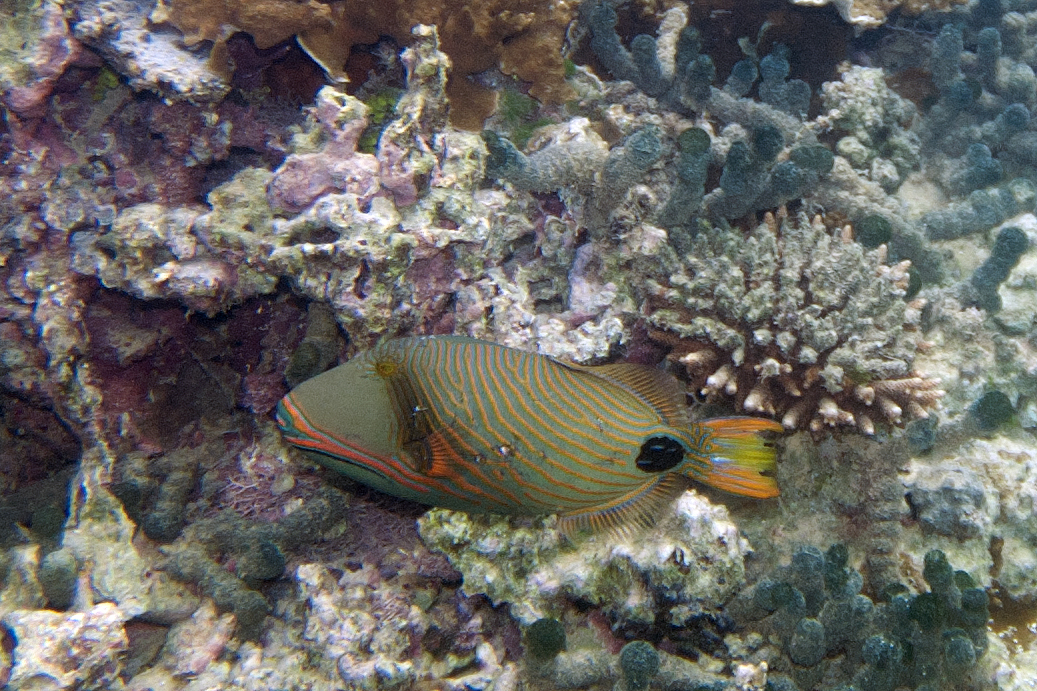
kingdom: Animalia
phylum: Chordata
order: Tetraodontiformes
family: Balistidae
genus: Balistapus
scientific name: Balistapus undulatus
